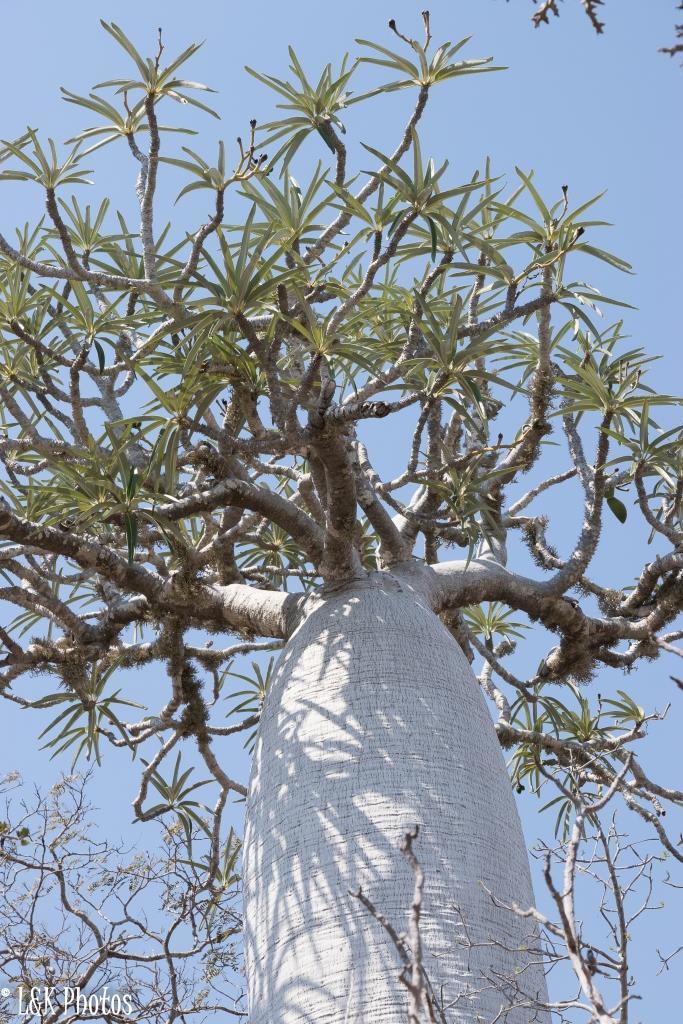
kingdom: Plantae
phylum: Tracheophyta
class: Magnoliopsida
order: Gentianales
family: Apocynaceae
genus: Pachypodium
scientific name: Pachypodium geayi
